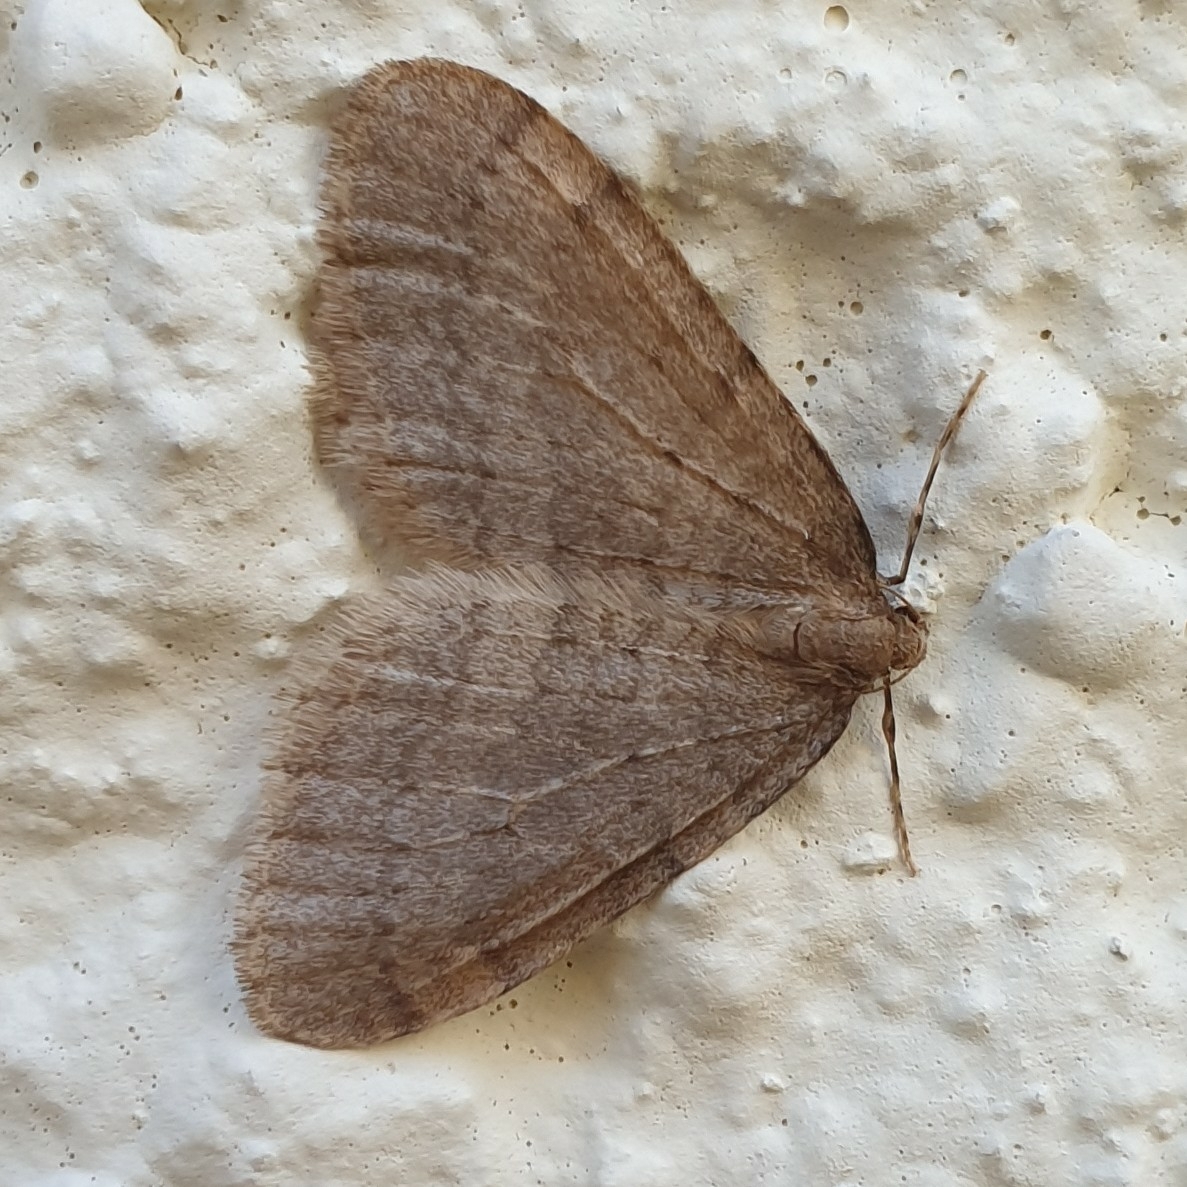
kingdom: Animalia
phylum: Arthropoda
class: Insecta
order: Lepidoptera
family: Geometridae
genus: Operophtera
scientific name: Operophtera brumata
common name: Winter moth
